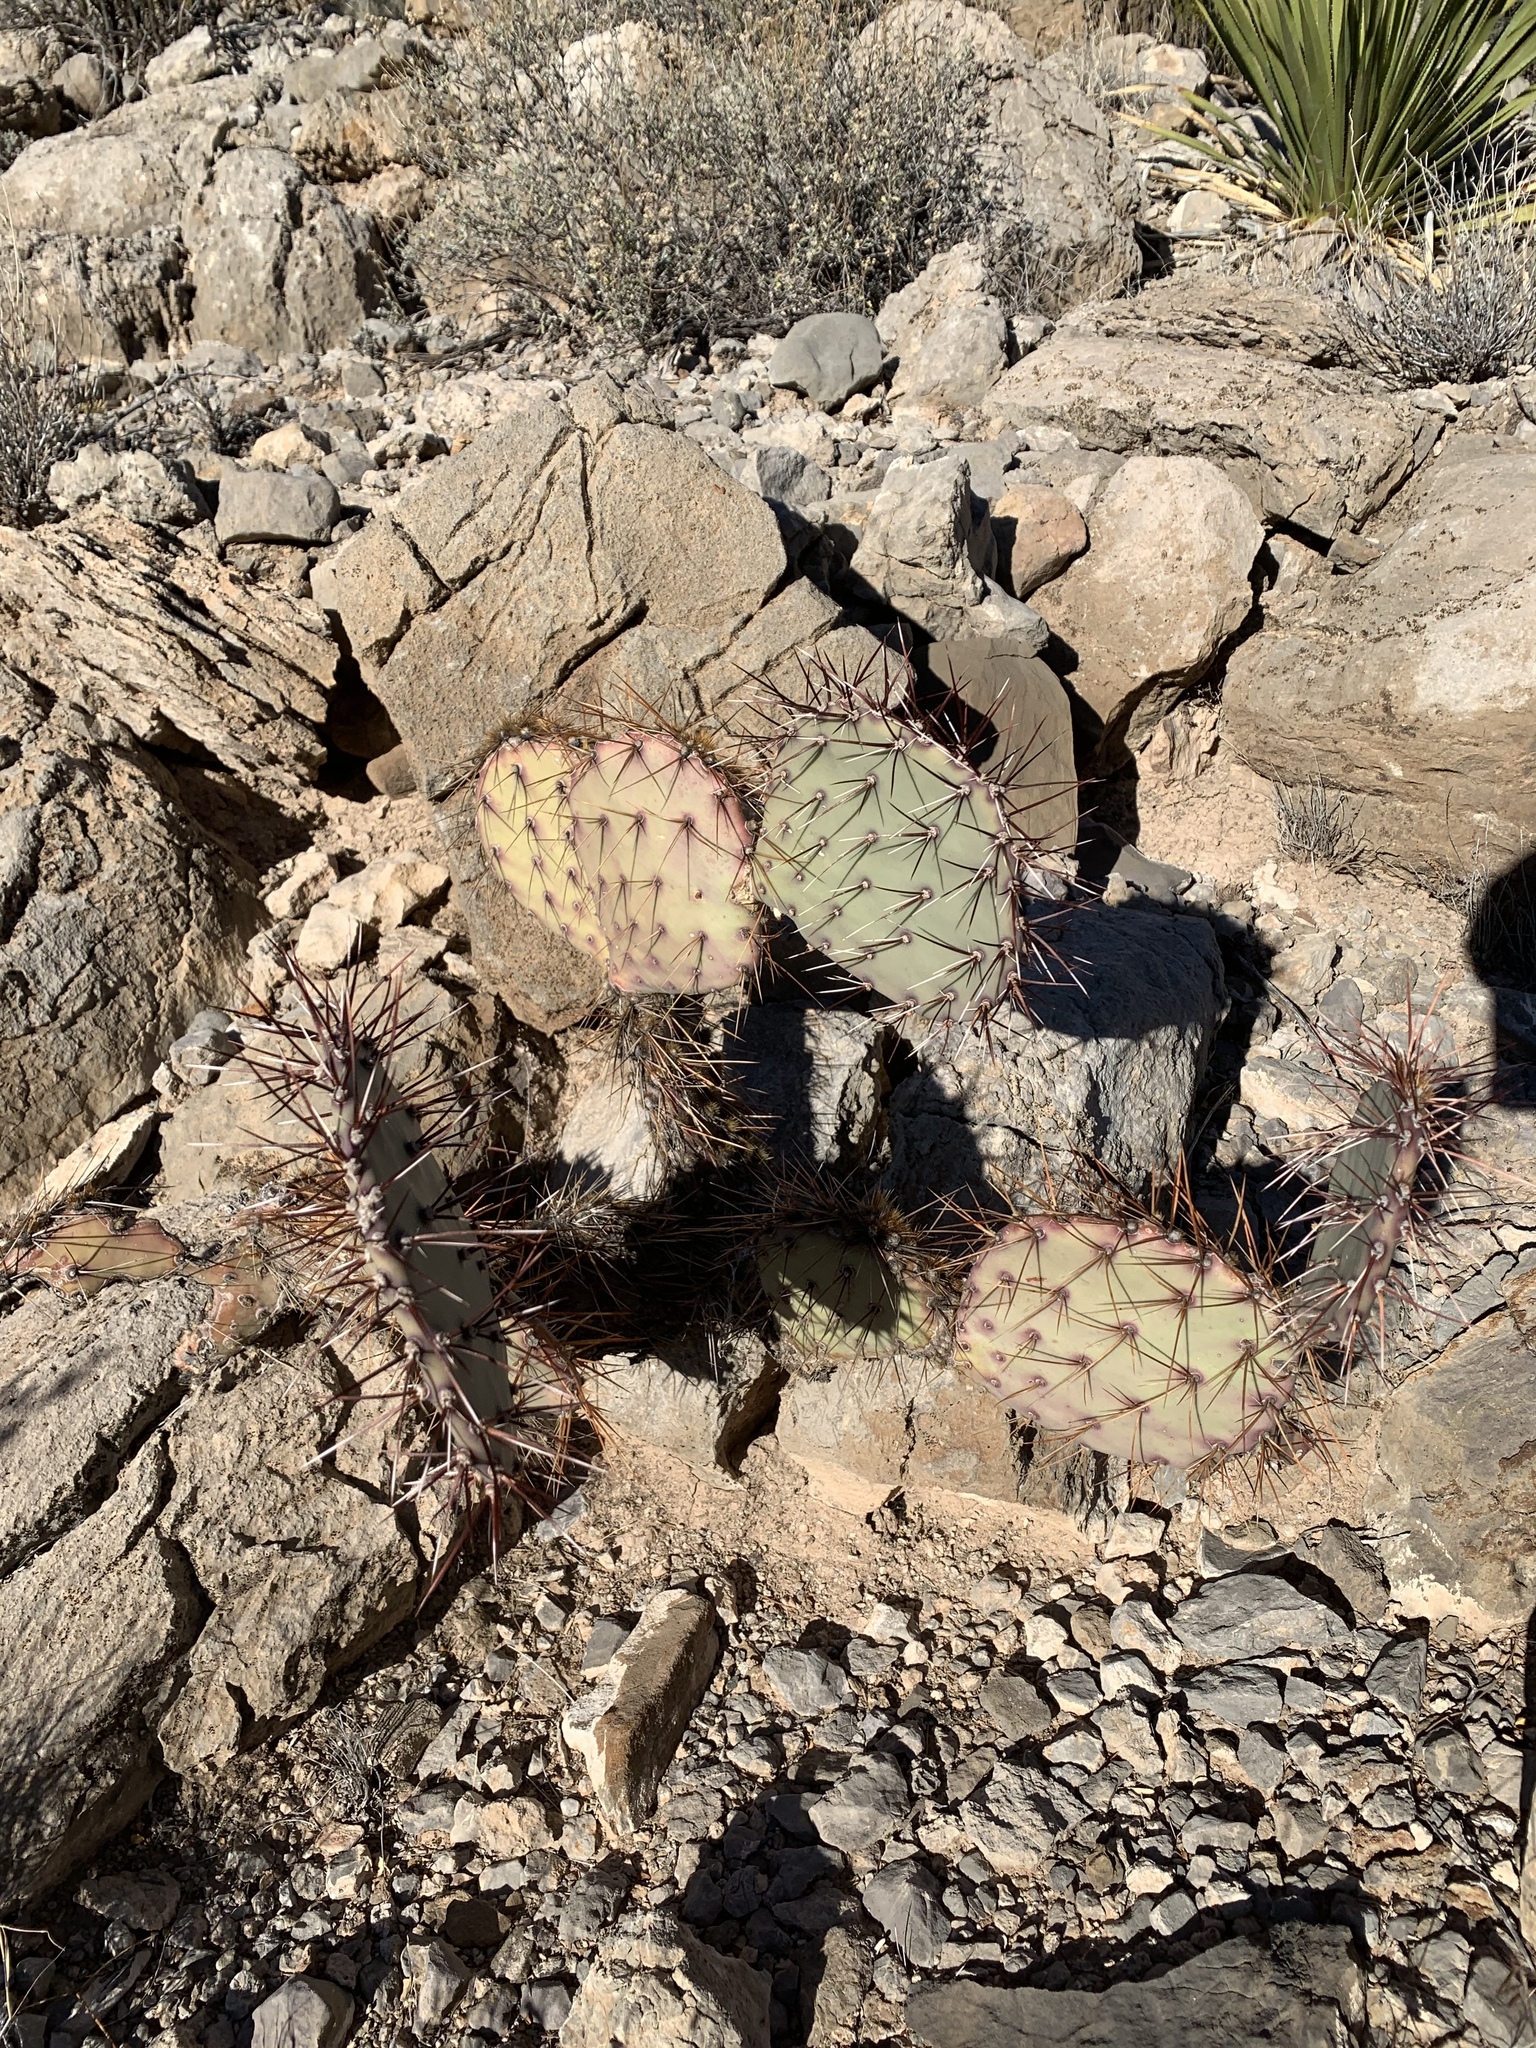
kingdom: Plantae
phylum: Tracheophyta
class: Magnoliopsida
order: Caryophyllales
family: Cactaceae
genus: Opuntia
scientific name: Opuntia macrocentra
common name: Purple prickly-pear
